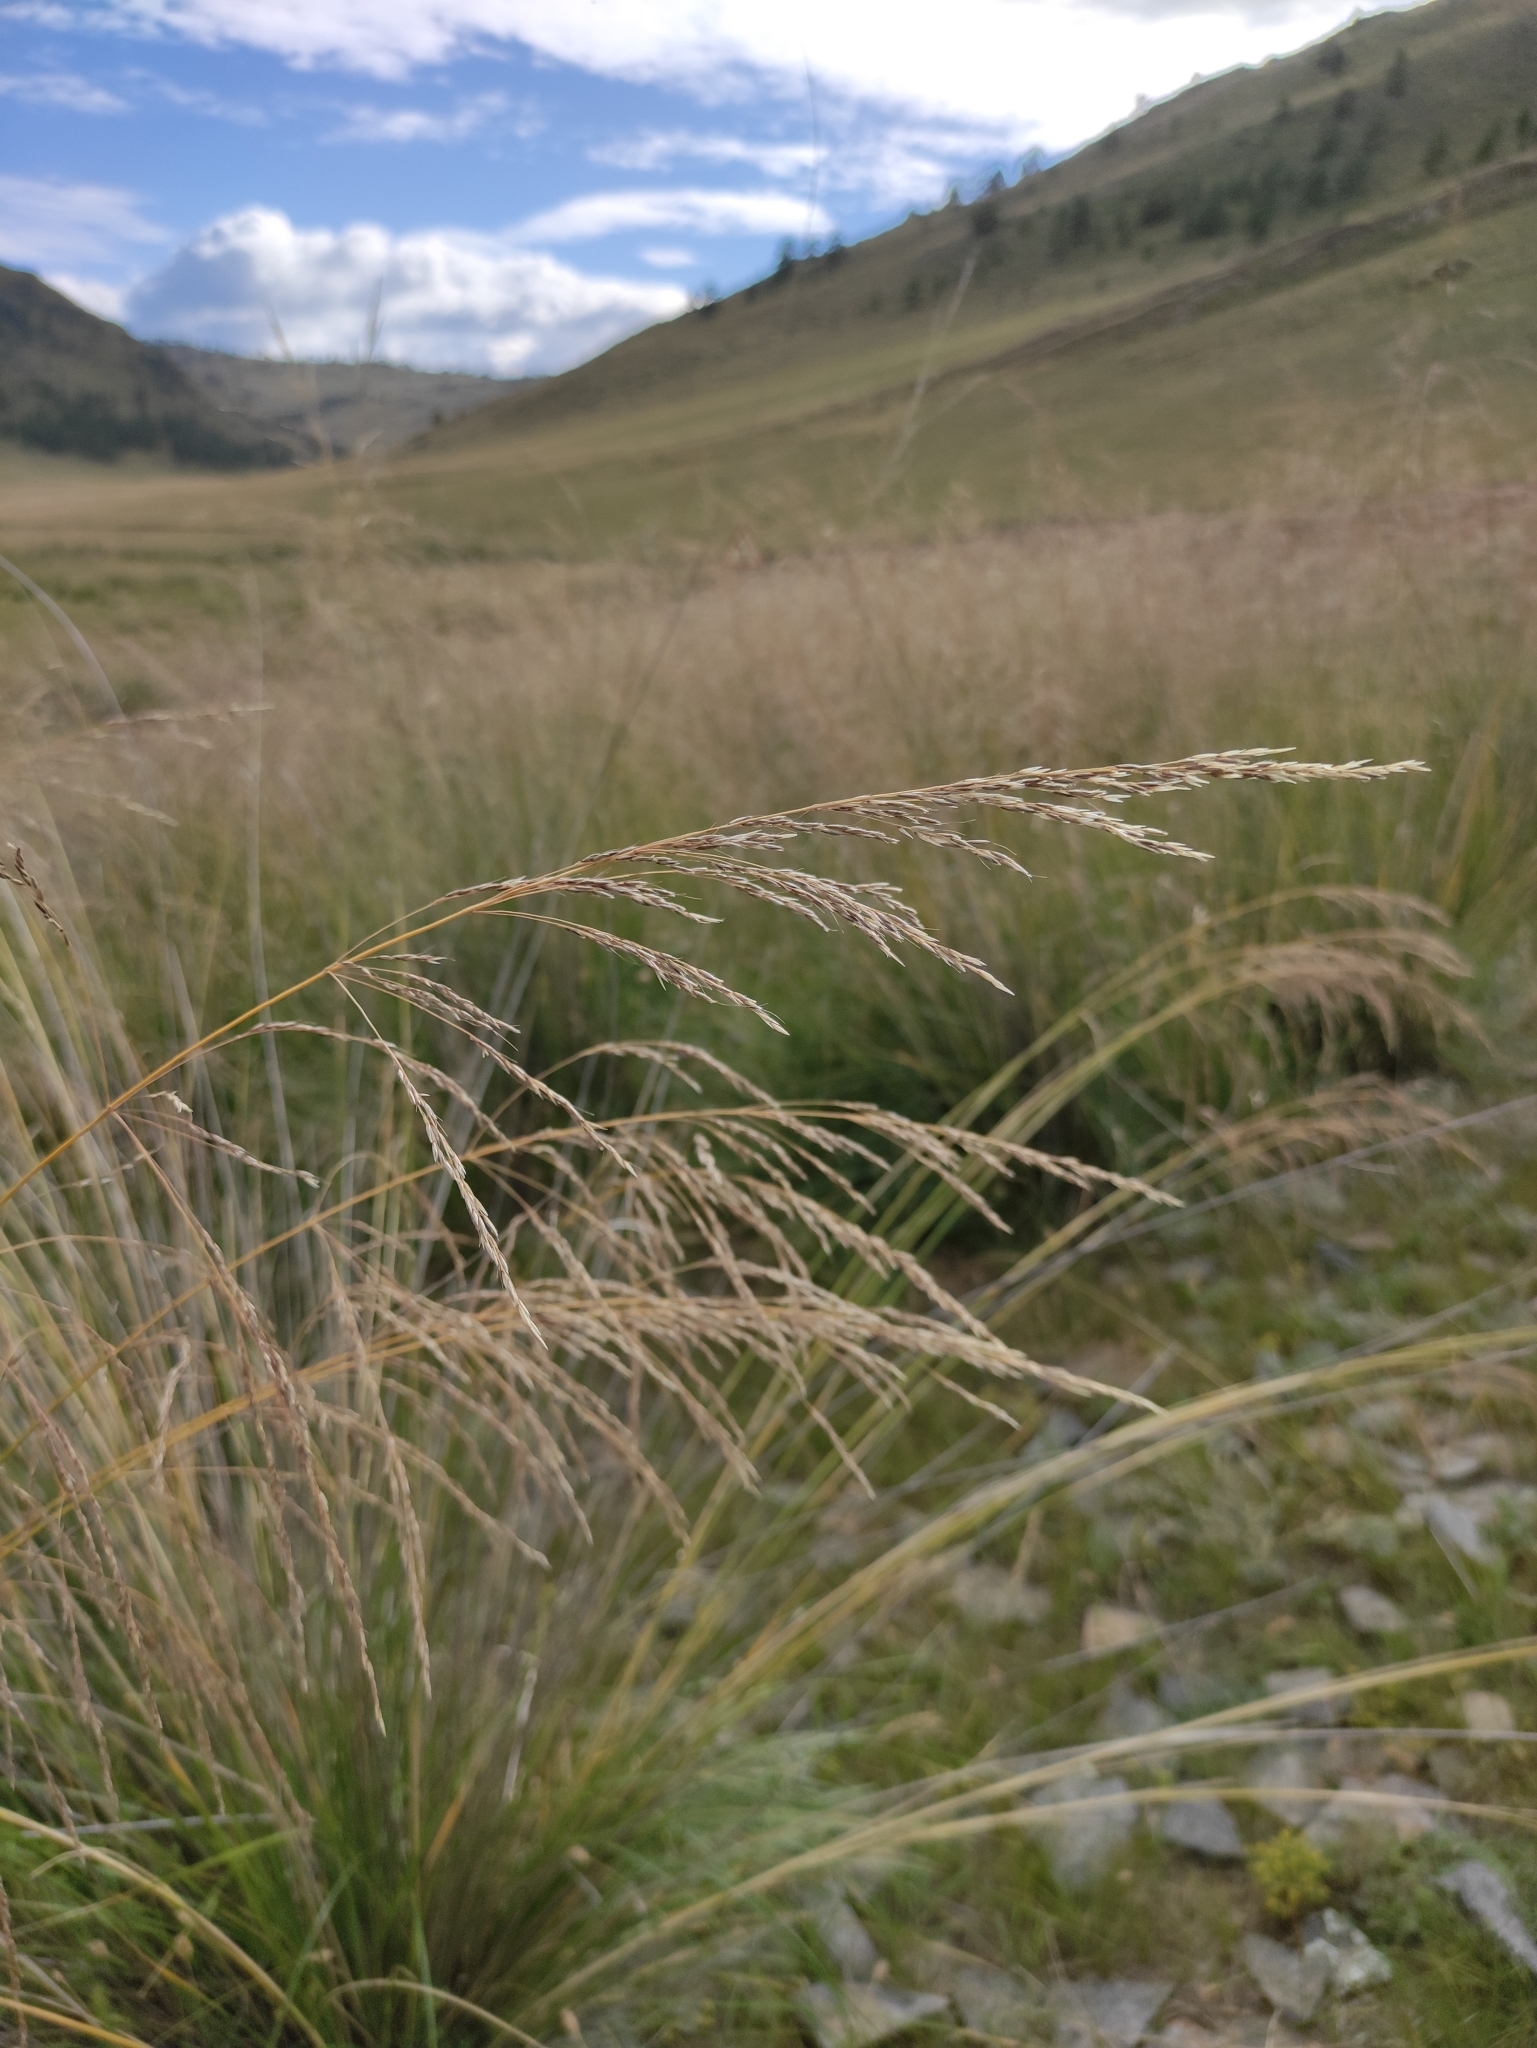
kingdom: Plantae
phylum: Tracheophyta
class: Liliopsida
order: Poales
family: Poaceae
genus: Neotrinia
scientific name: Neotrinia splendens
